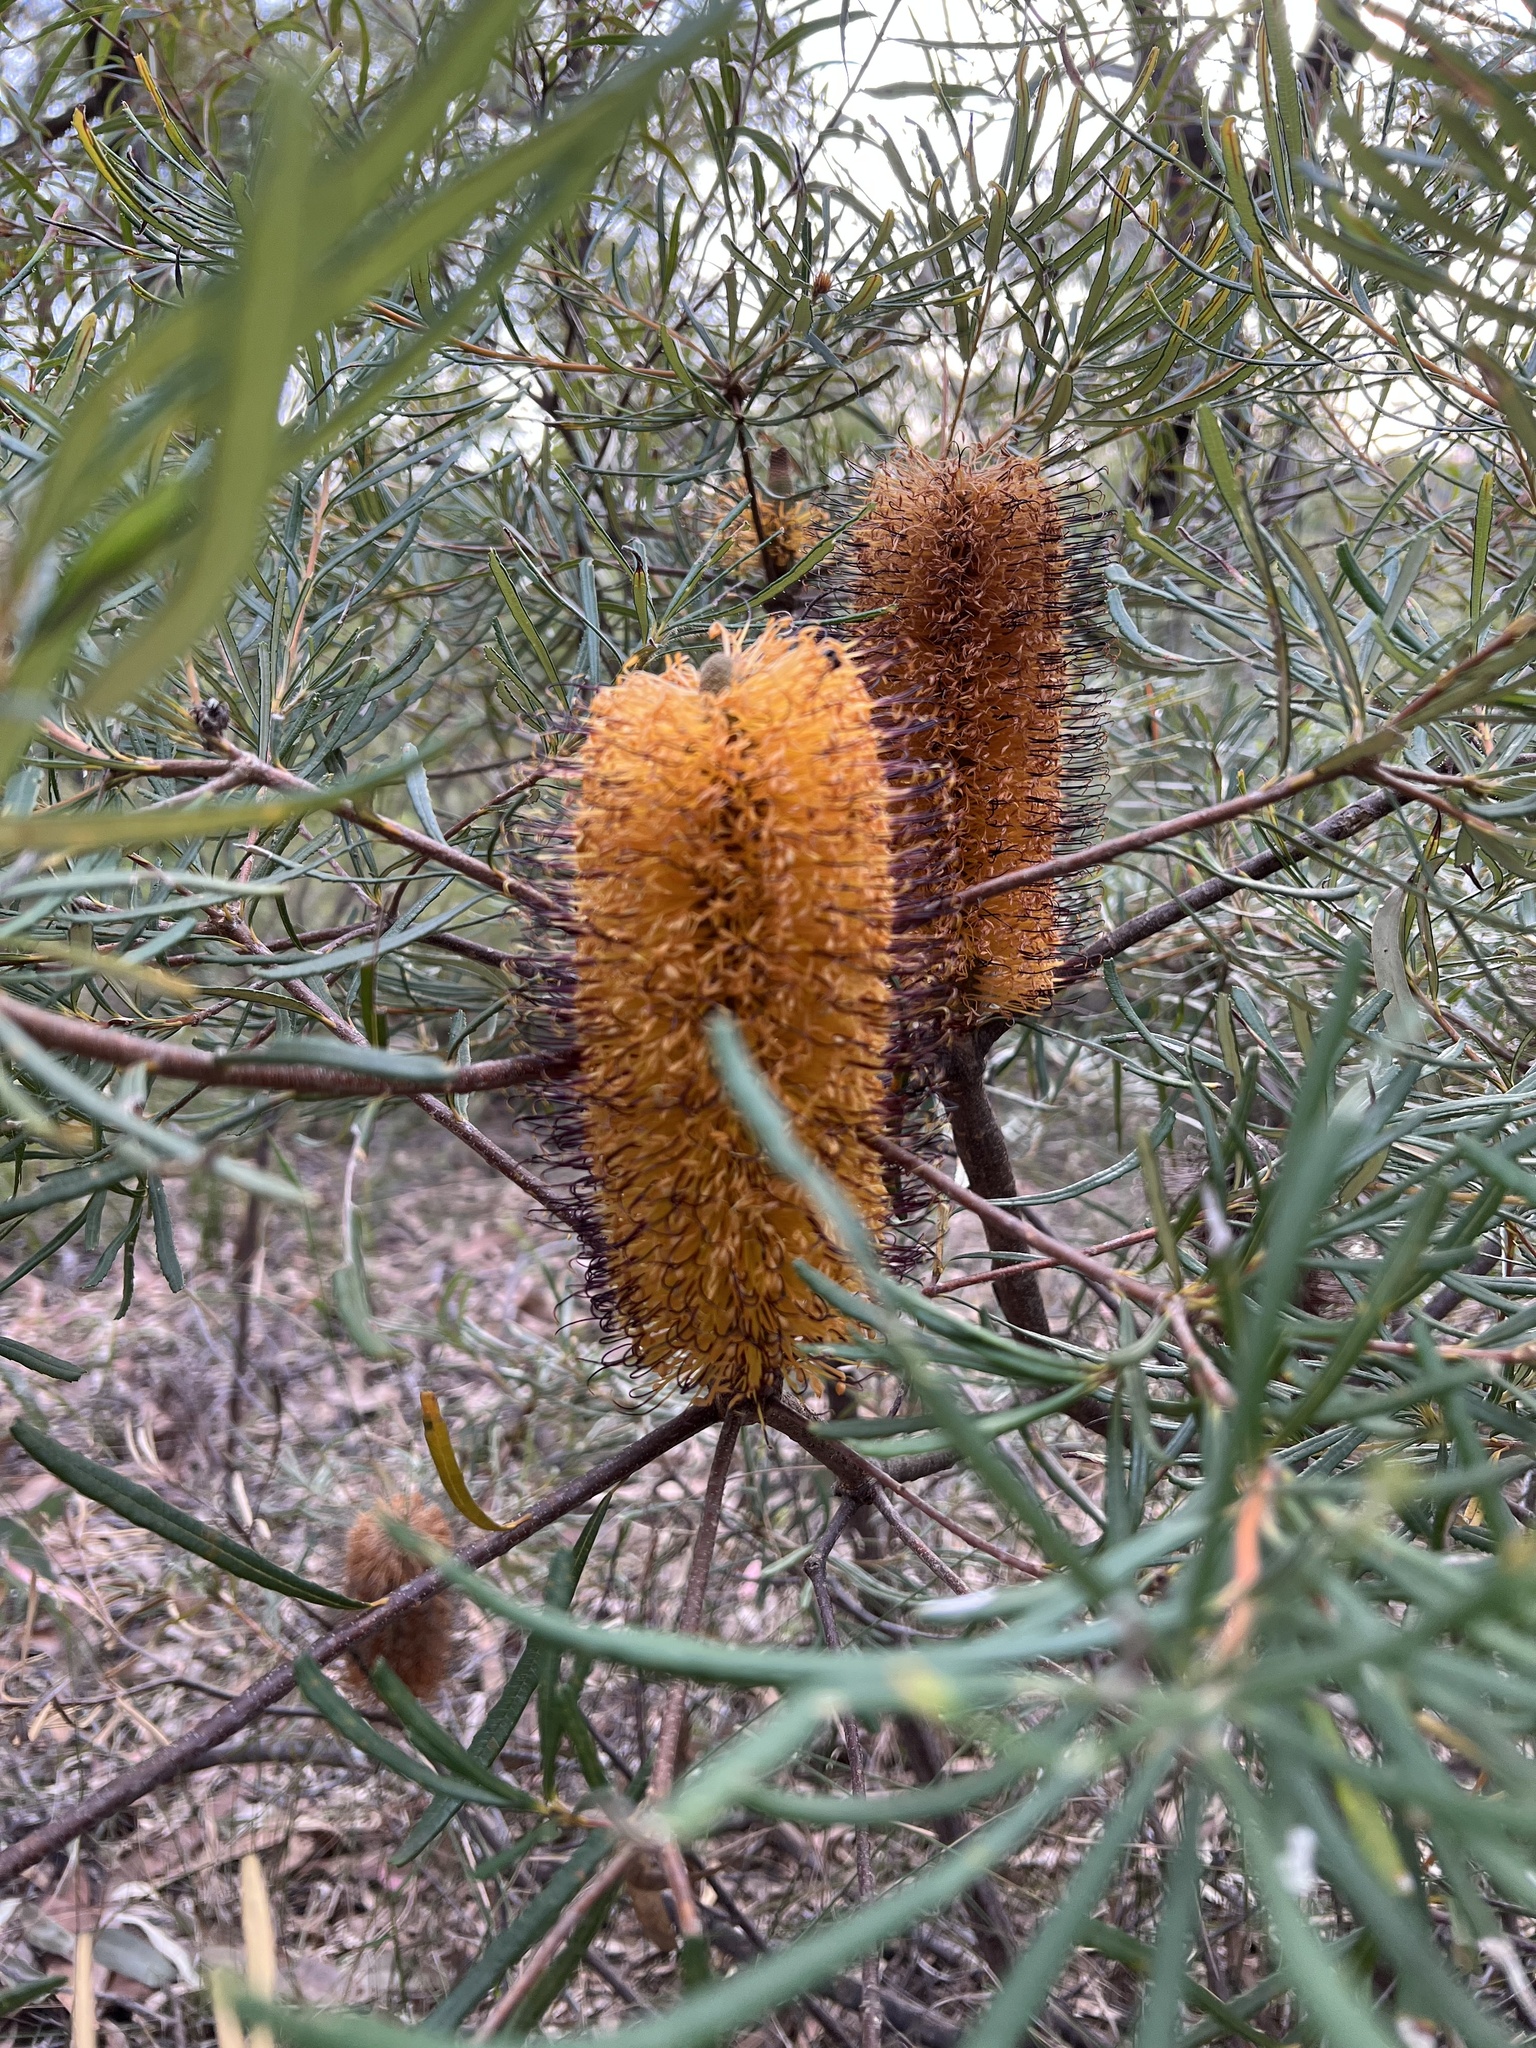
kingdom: Plantae
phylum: Tracheophyta
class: Magnoliopsida
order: Proteales
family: Proteaceae
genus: Banksia
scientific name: Banksia spinulosa
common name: Hairpin banksia
